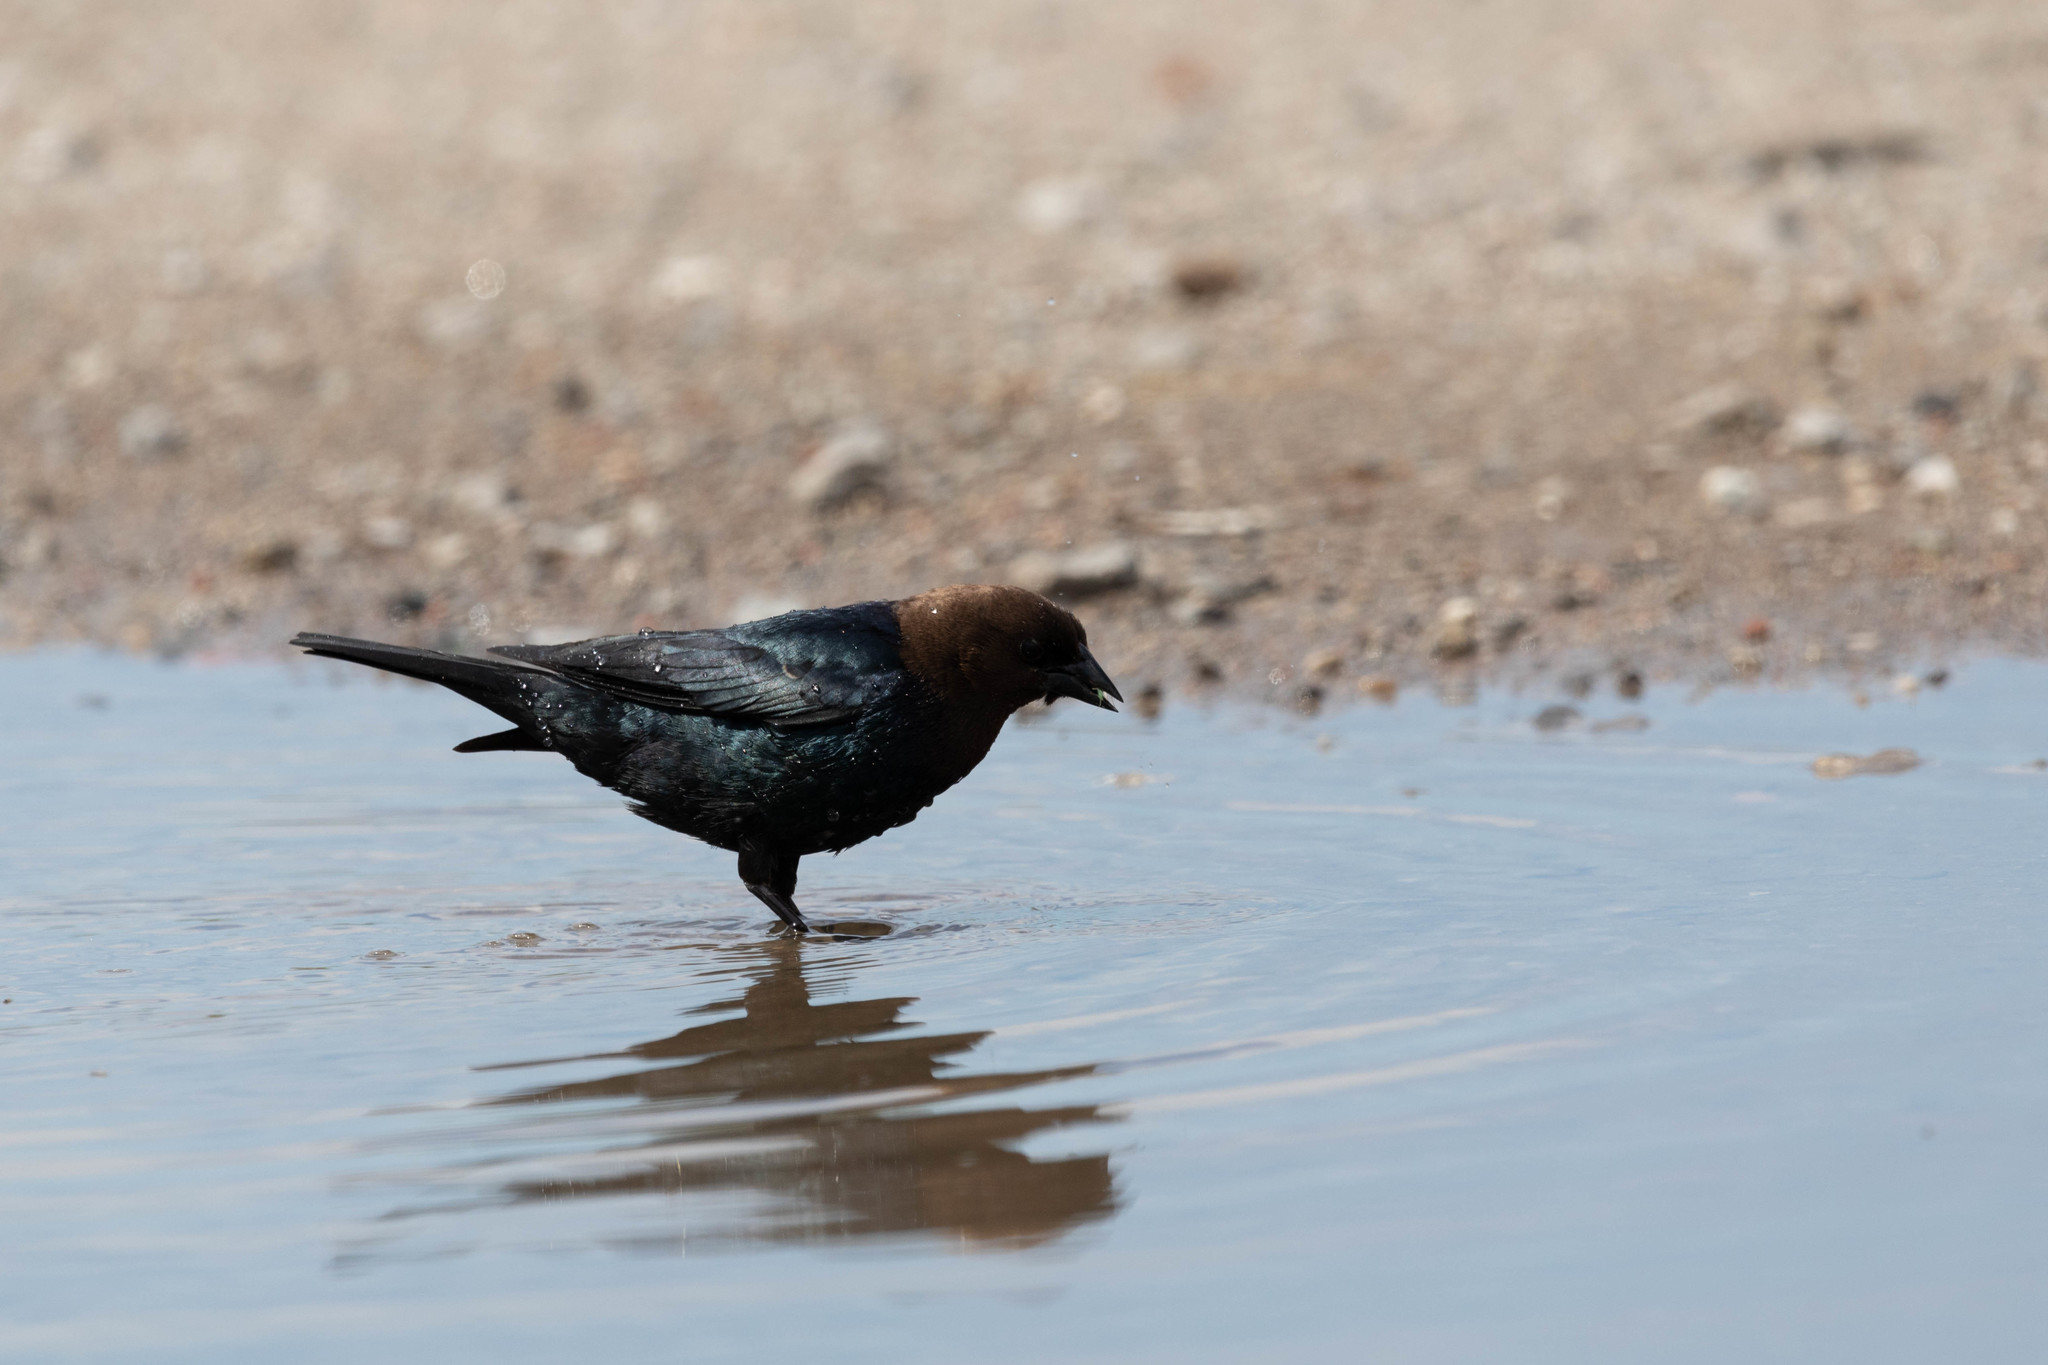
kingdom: Animalia
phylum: Chordata
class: Aves
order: Passeriformes
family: Icteridae
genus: Molothrus
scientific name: Molothrus ater
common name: Brown-headed cowbird
